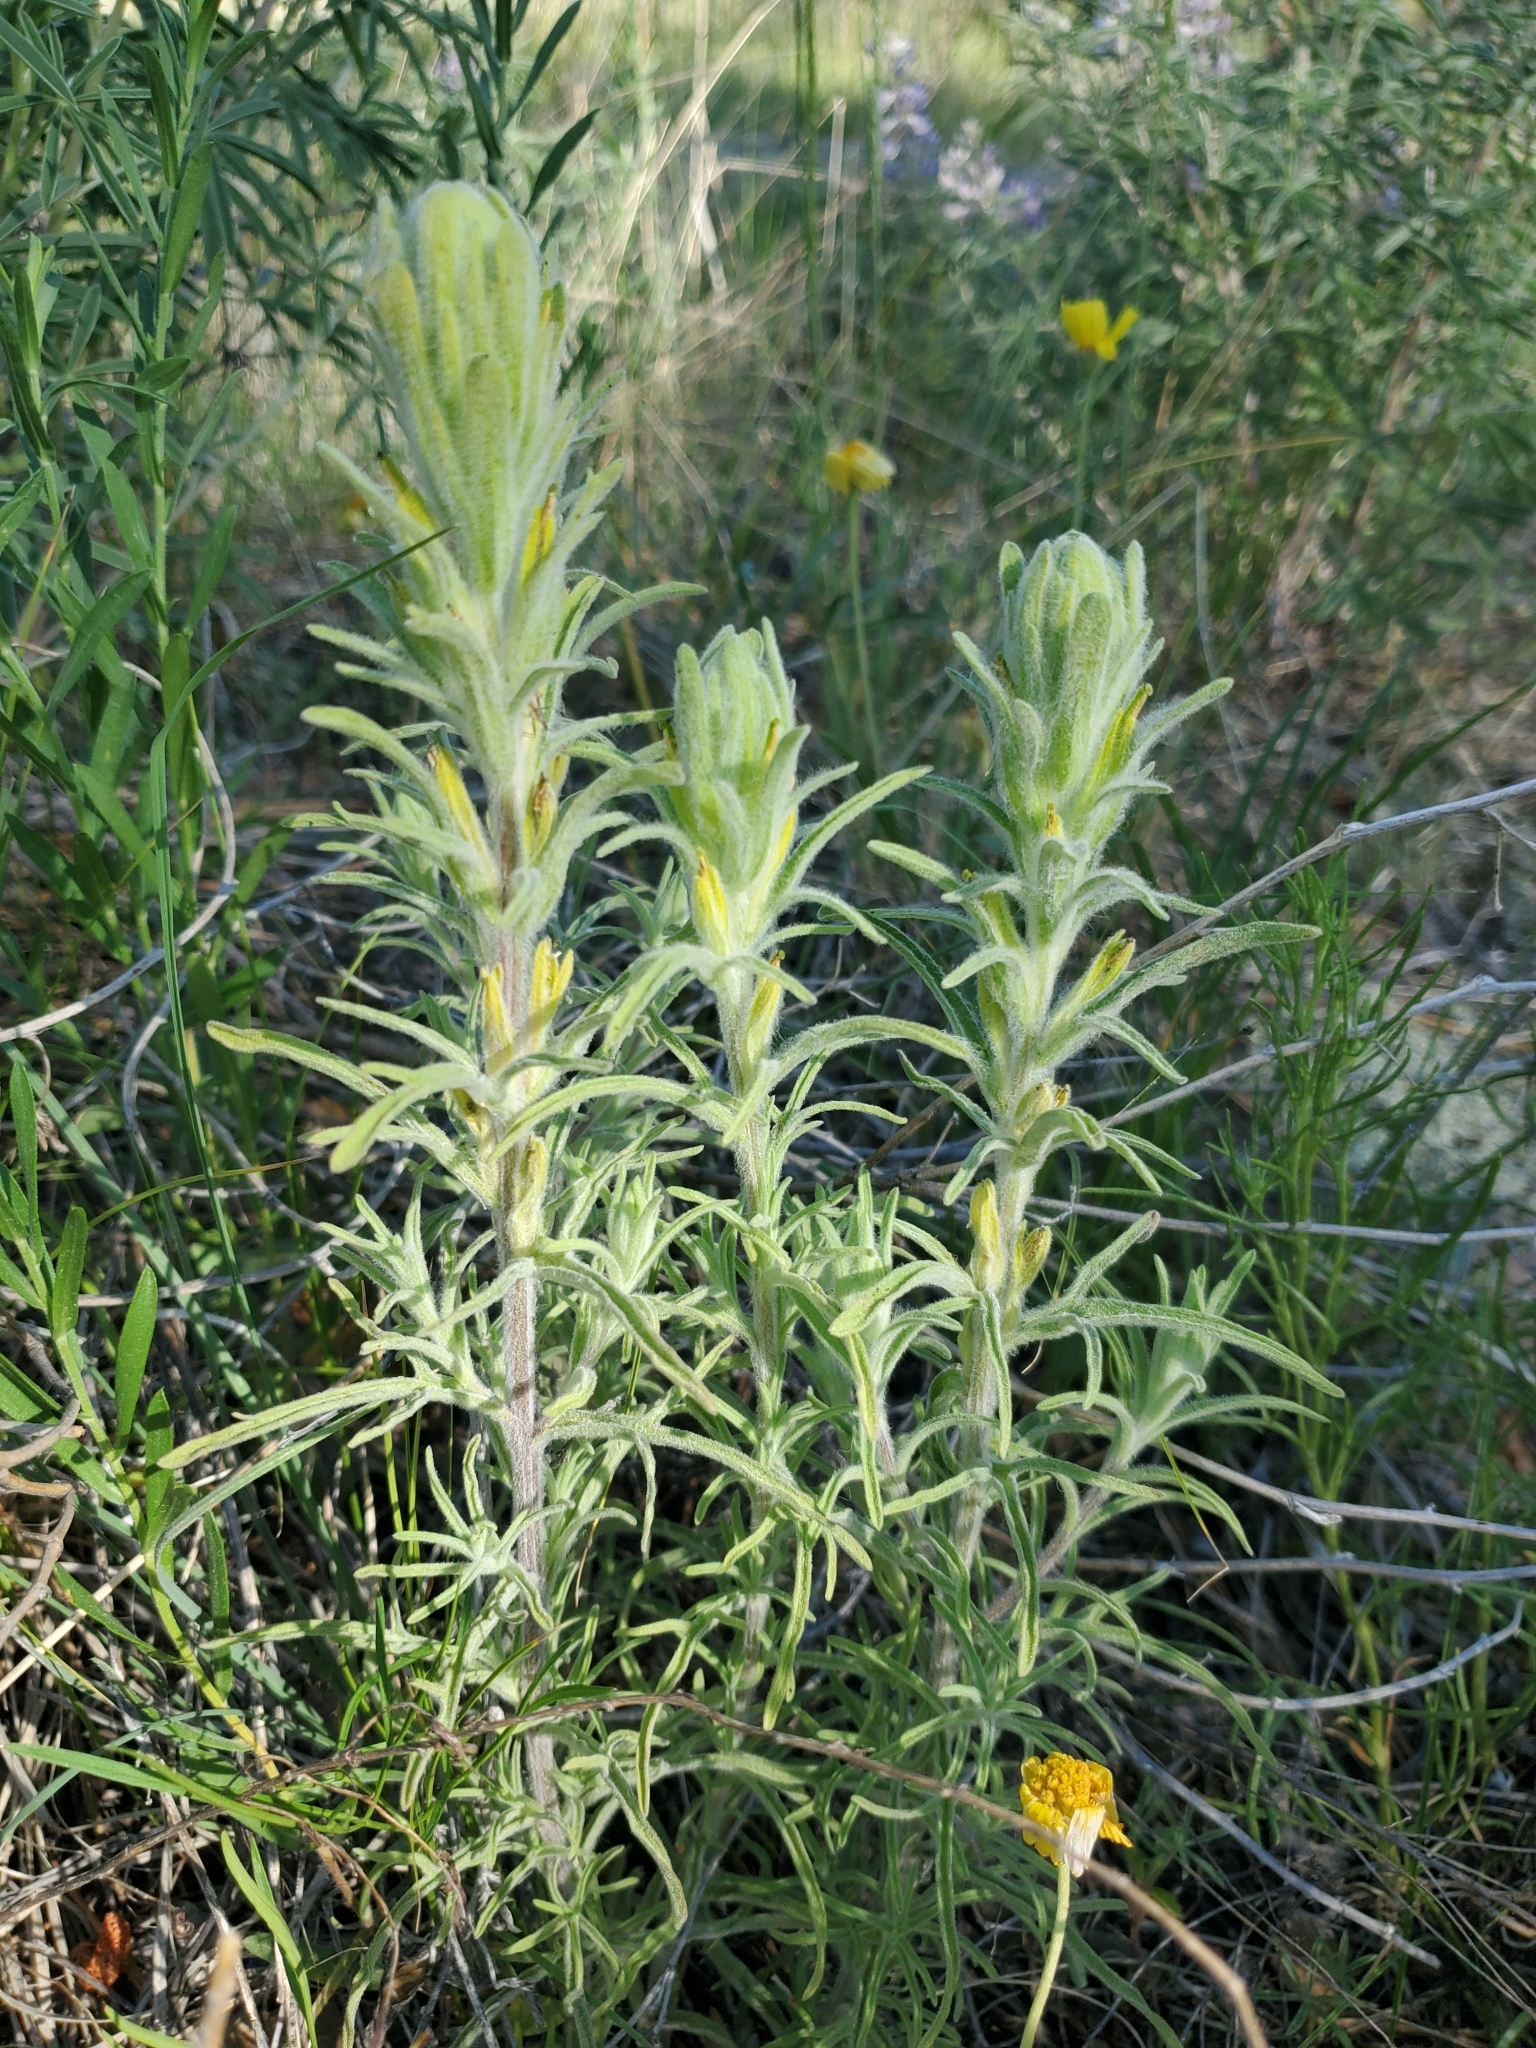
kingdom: Plantae
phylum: Tracheophyta
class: Magnoliopsida
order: Lamiales
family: Orobanchaceae
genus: Castilleja
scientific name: Castilleja lineata
